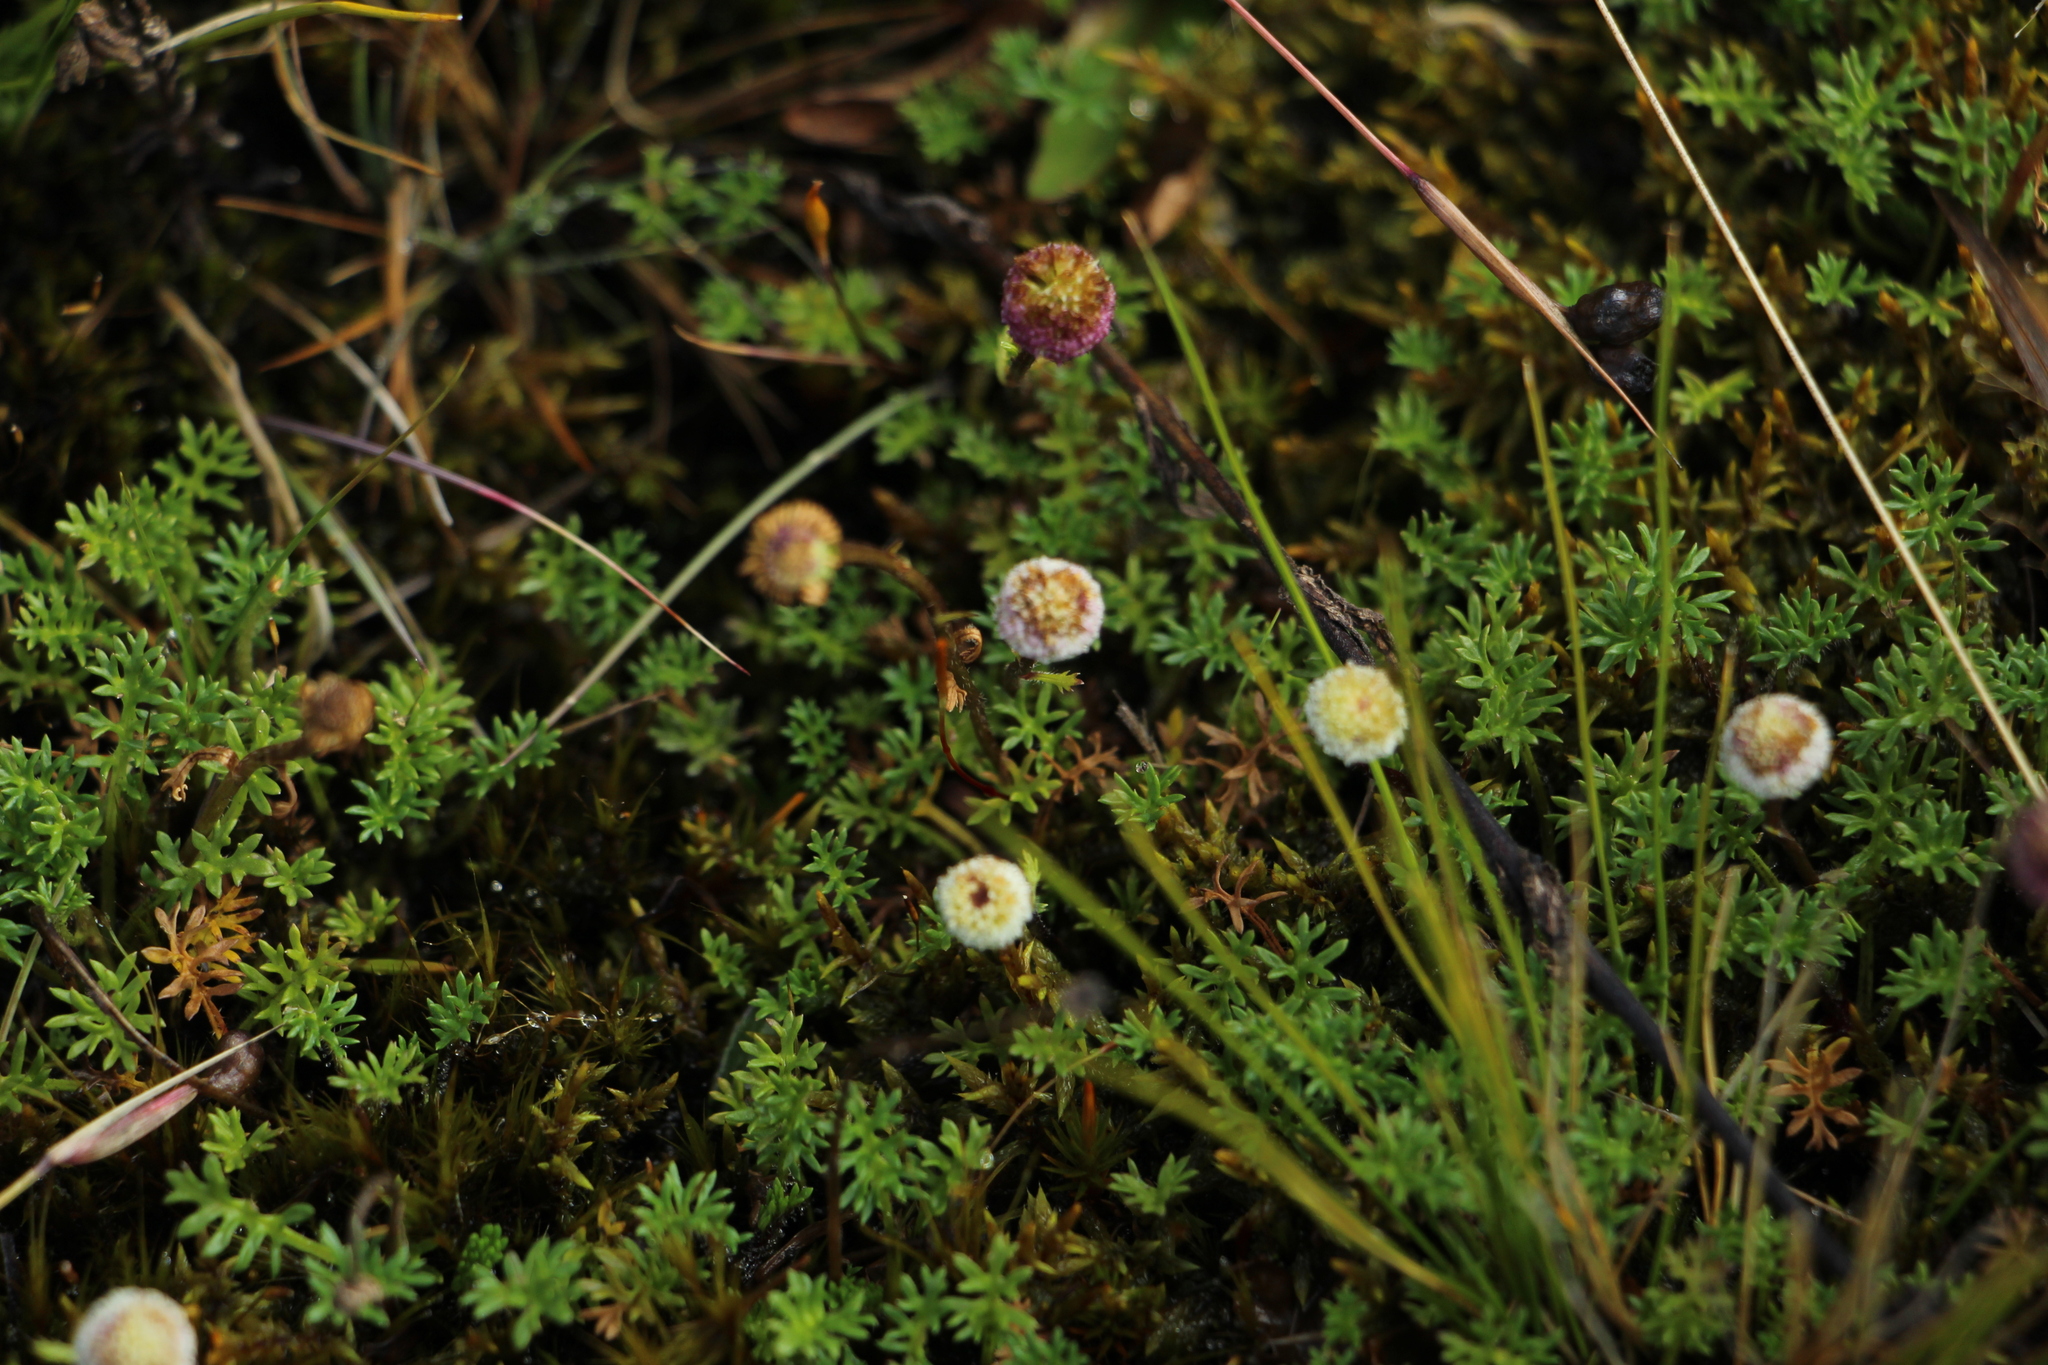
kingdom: Plantae
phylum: Tracheophyta
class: Magnoliopsida
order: Asterales
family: Asteraceae
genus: Plagiocheilus
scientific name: Plagiocheilus soliviformis
